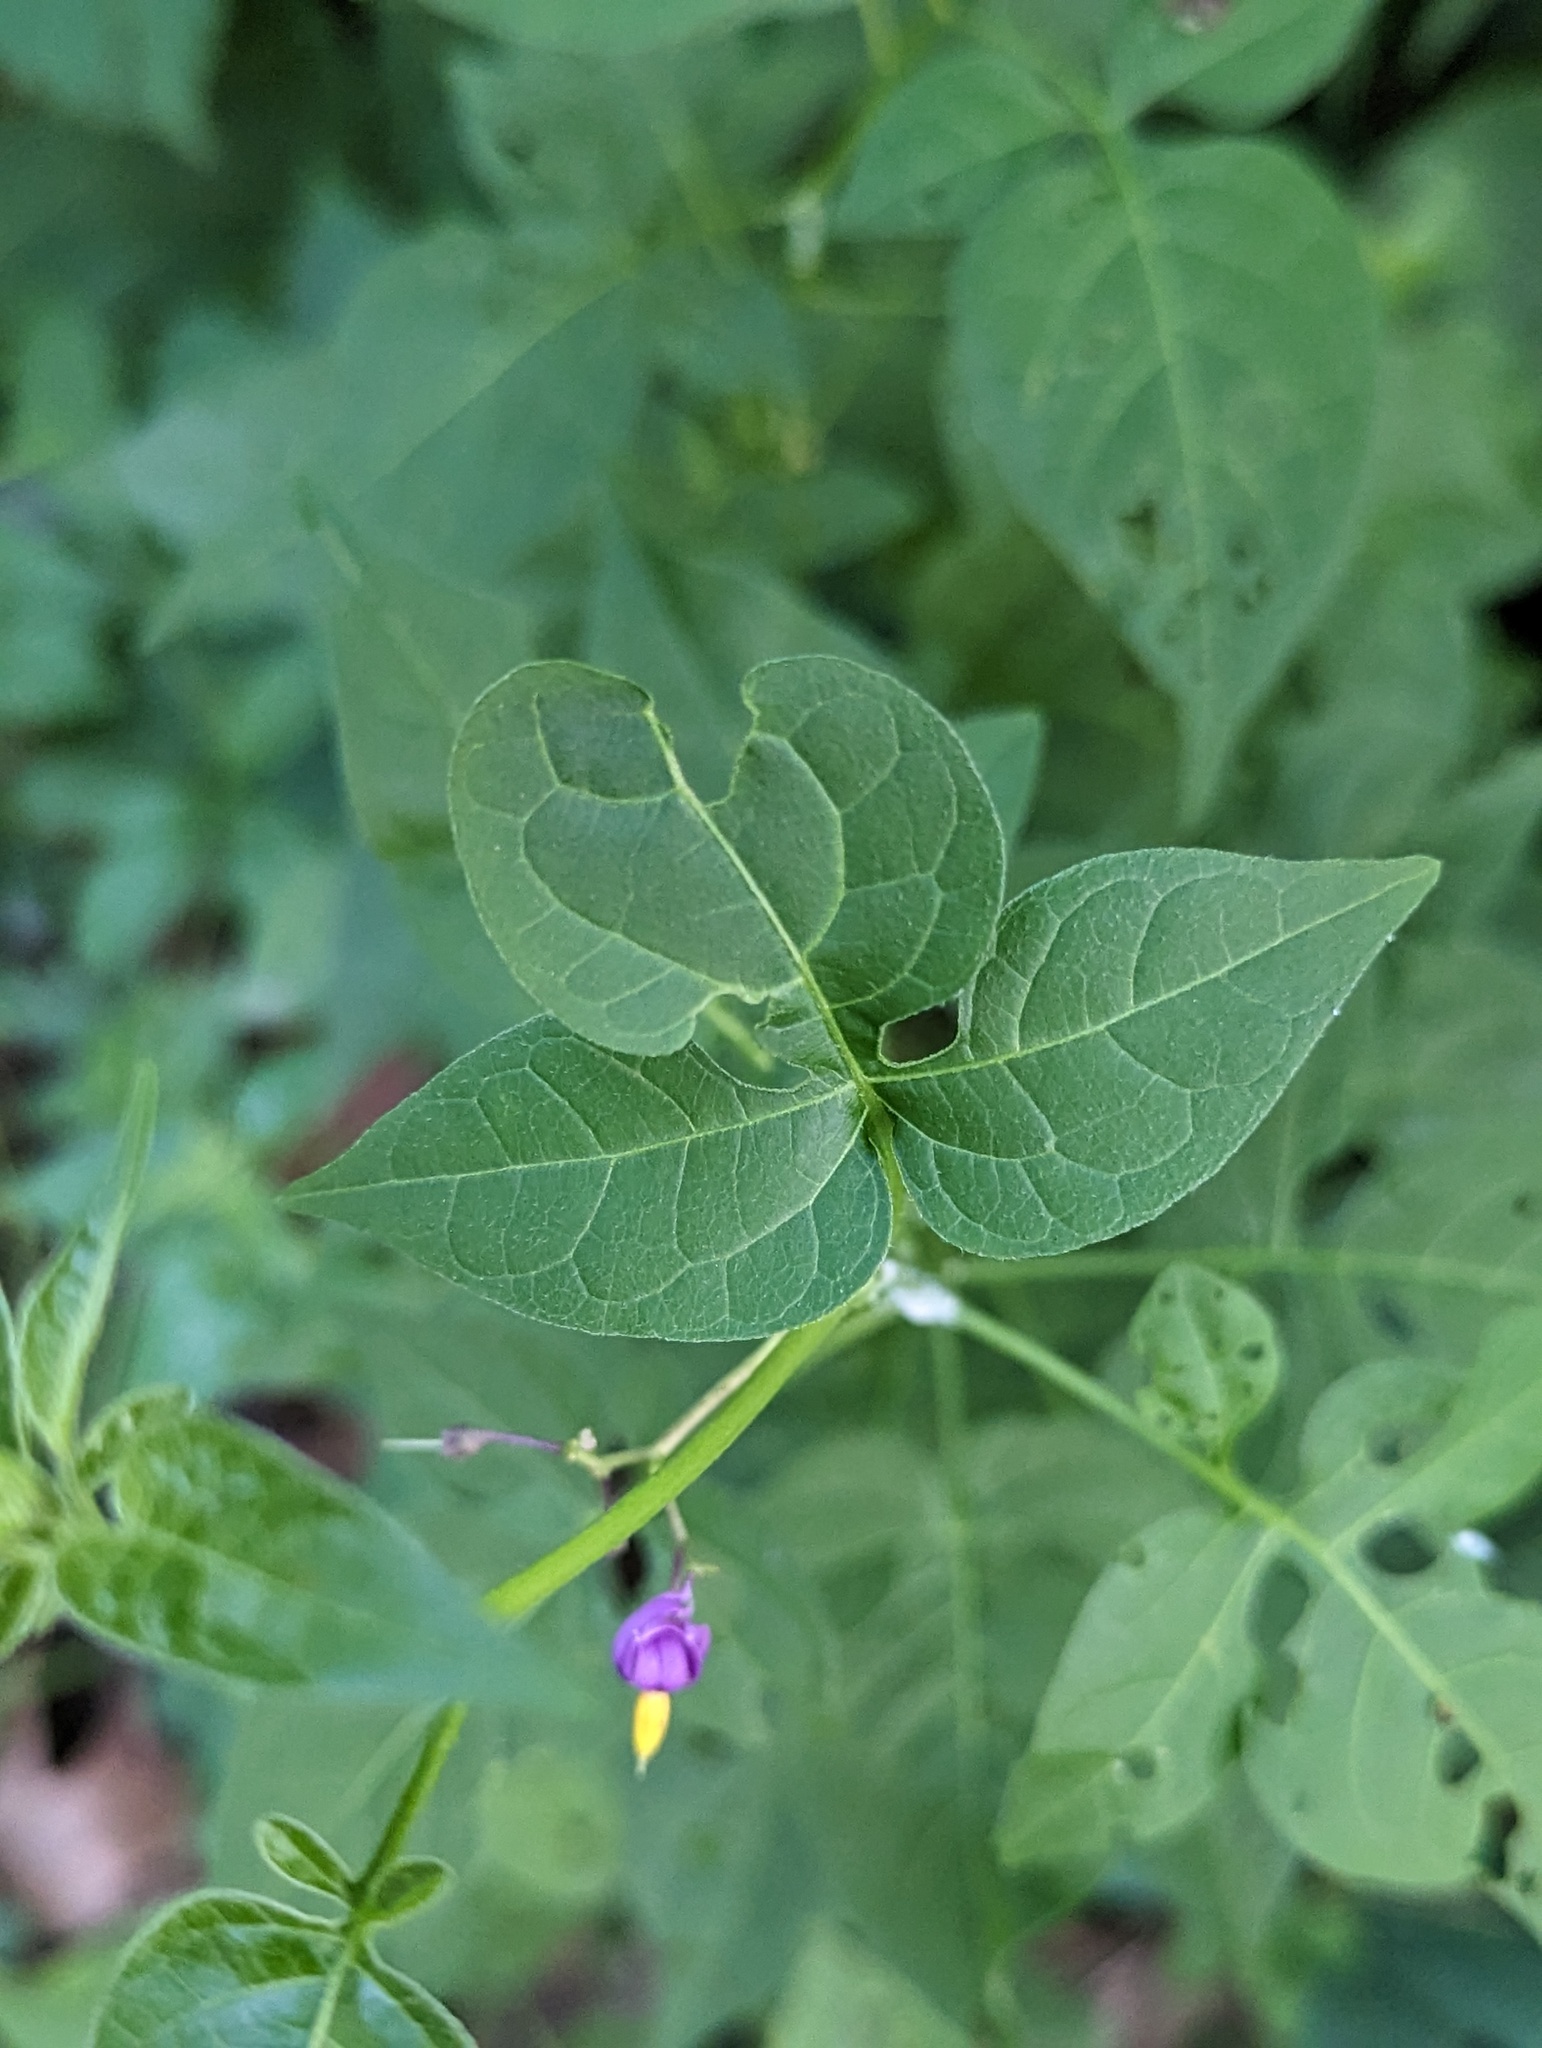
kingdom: Plantae
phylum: Tracheophyta
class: Magnoliopsida
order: Solanales
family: Solanaceae
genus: Solanum
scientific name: Solanum dulcamara
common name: Climbing nightshade
